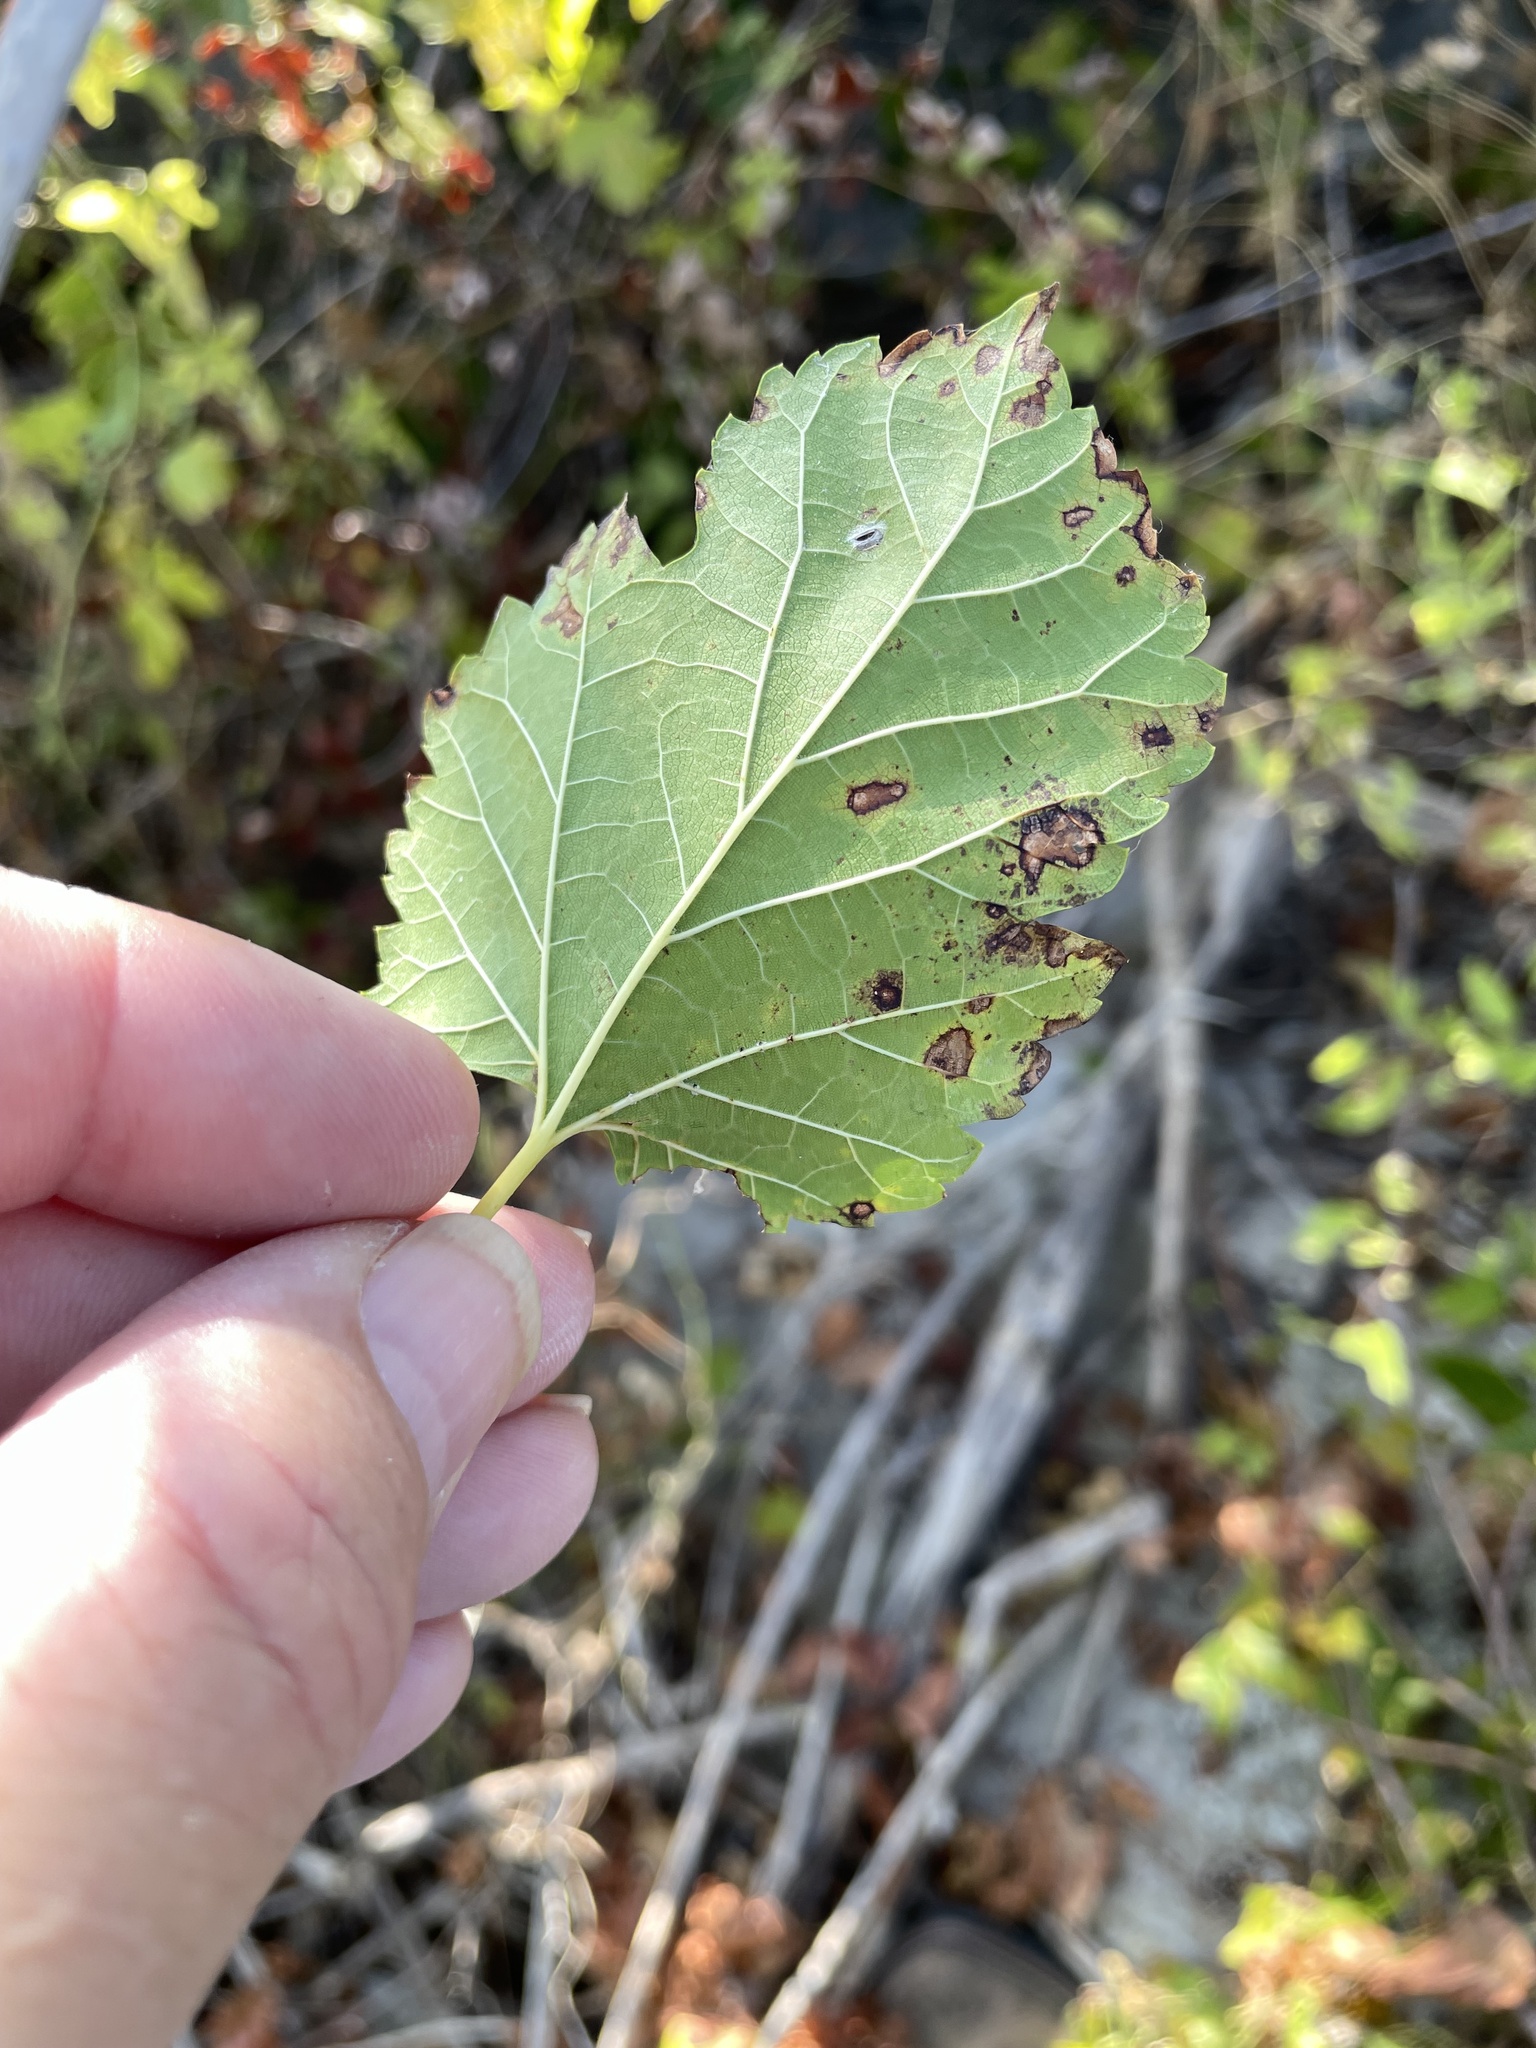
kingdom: Fungi
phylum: Ascomycota
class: Dothideomycetes
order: Mycosphaerellales
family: Mycosphaerellaceae
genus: Cercospora
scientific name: Cercospora moricola
